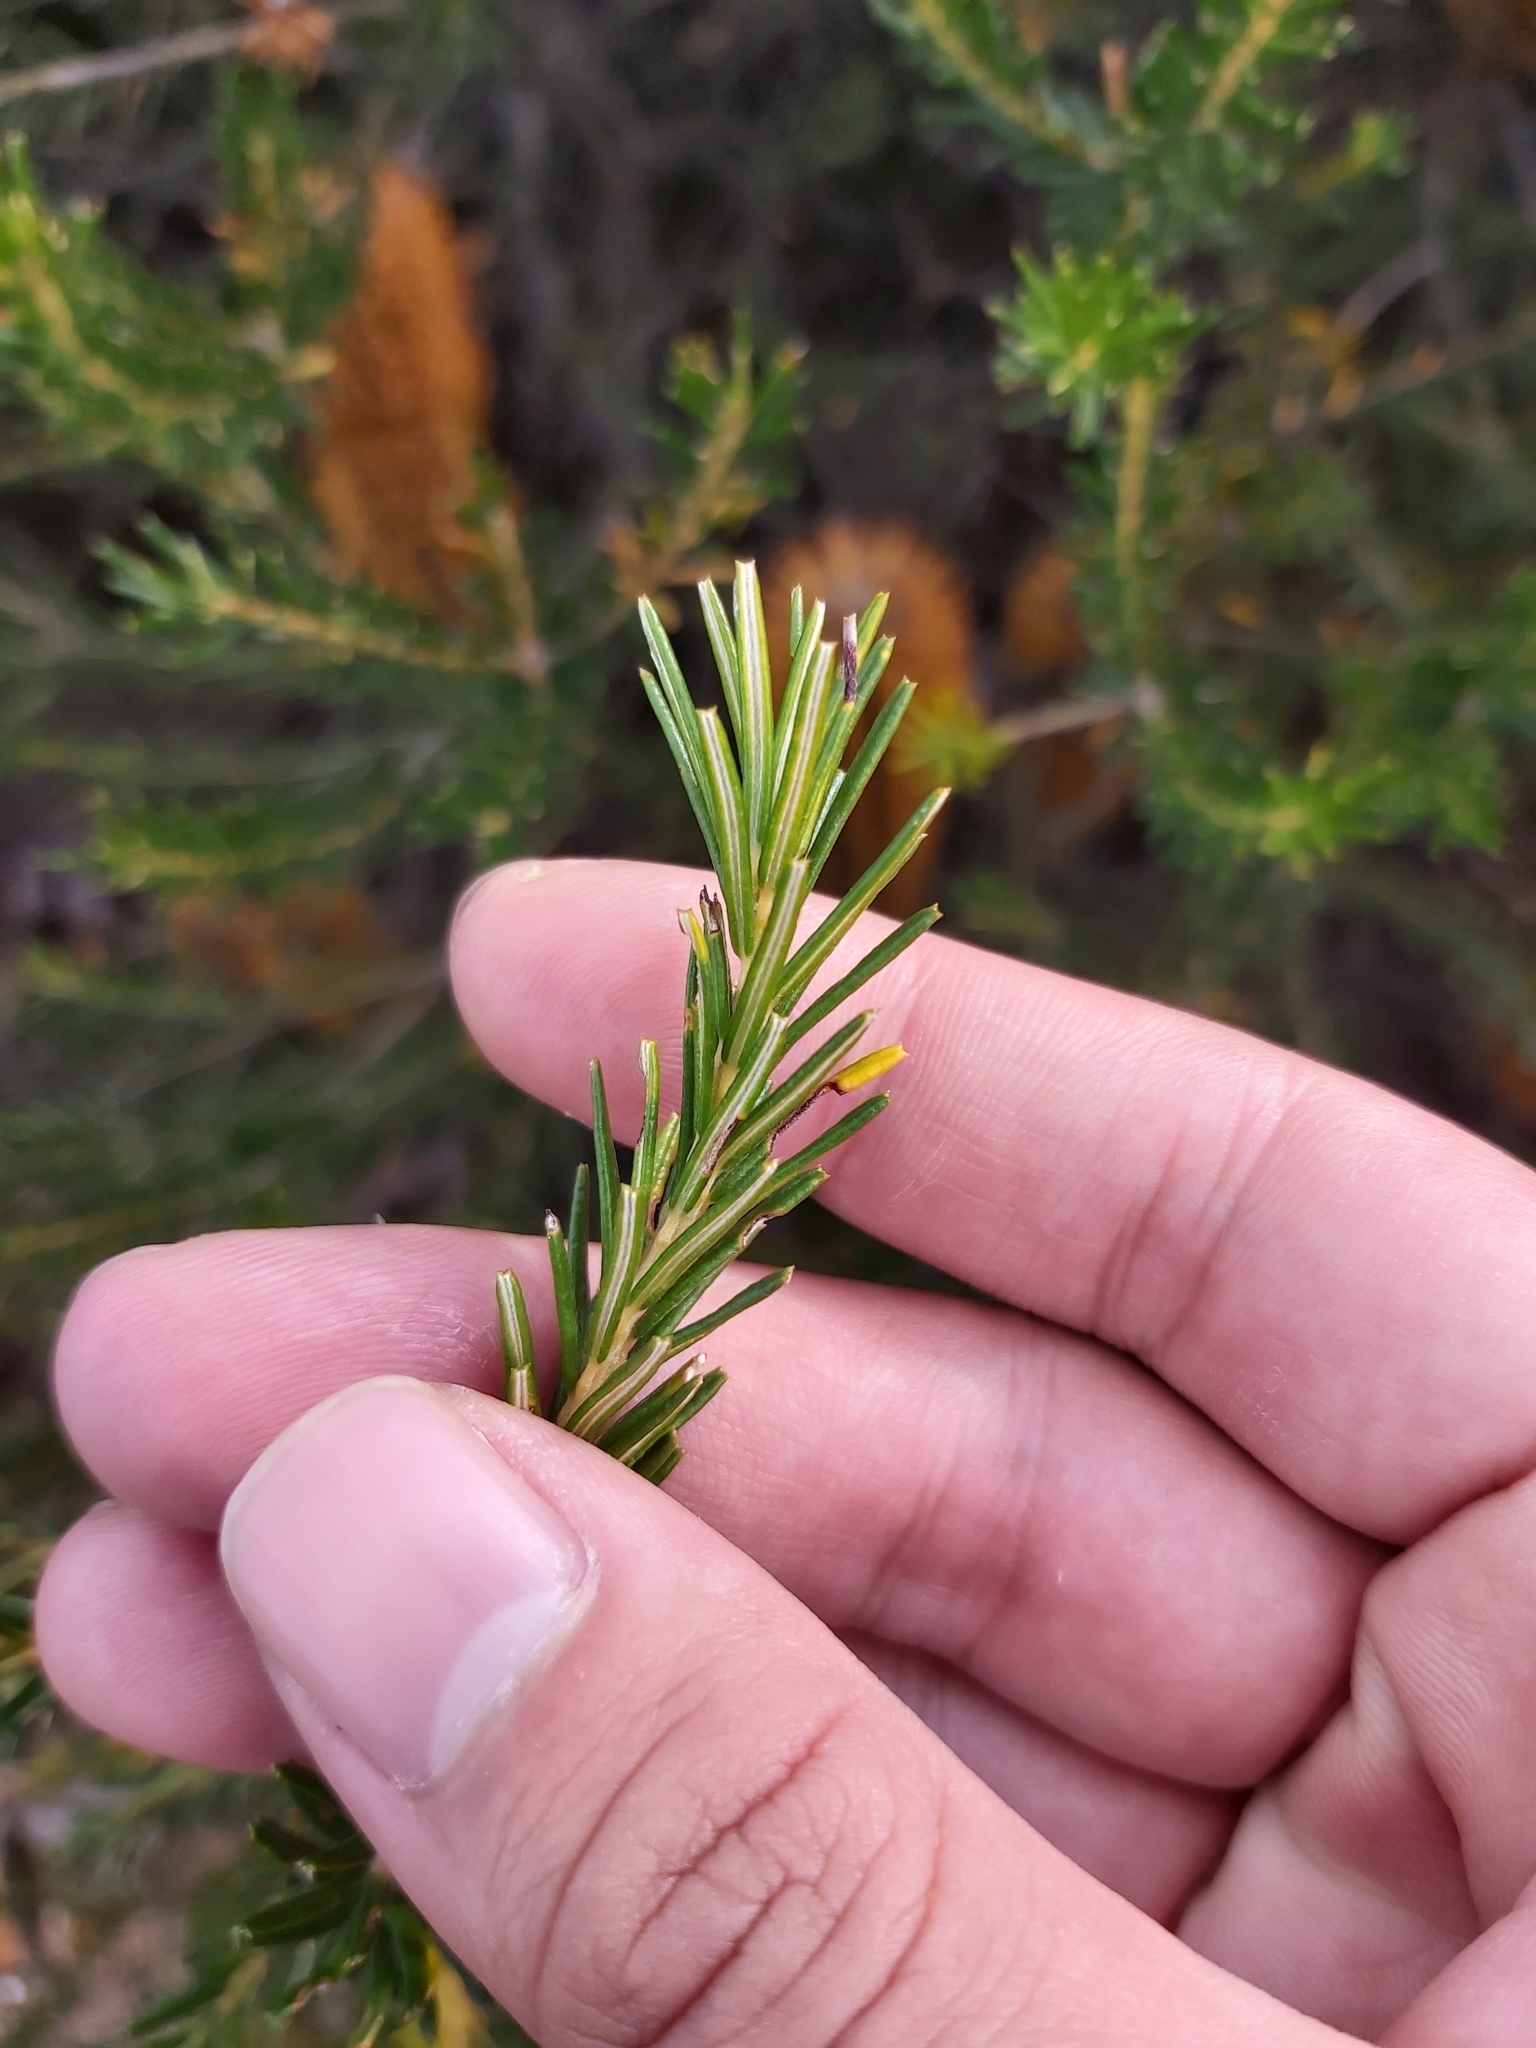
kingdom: Plantae
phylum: Tracheophyta
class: Magnoliopsida
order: Proteales
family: Proteaceae
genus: Banksia
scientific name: Banksia ericifolia
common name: Heath-leaf banksia
